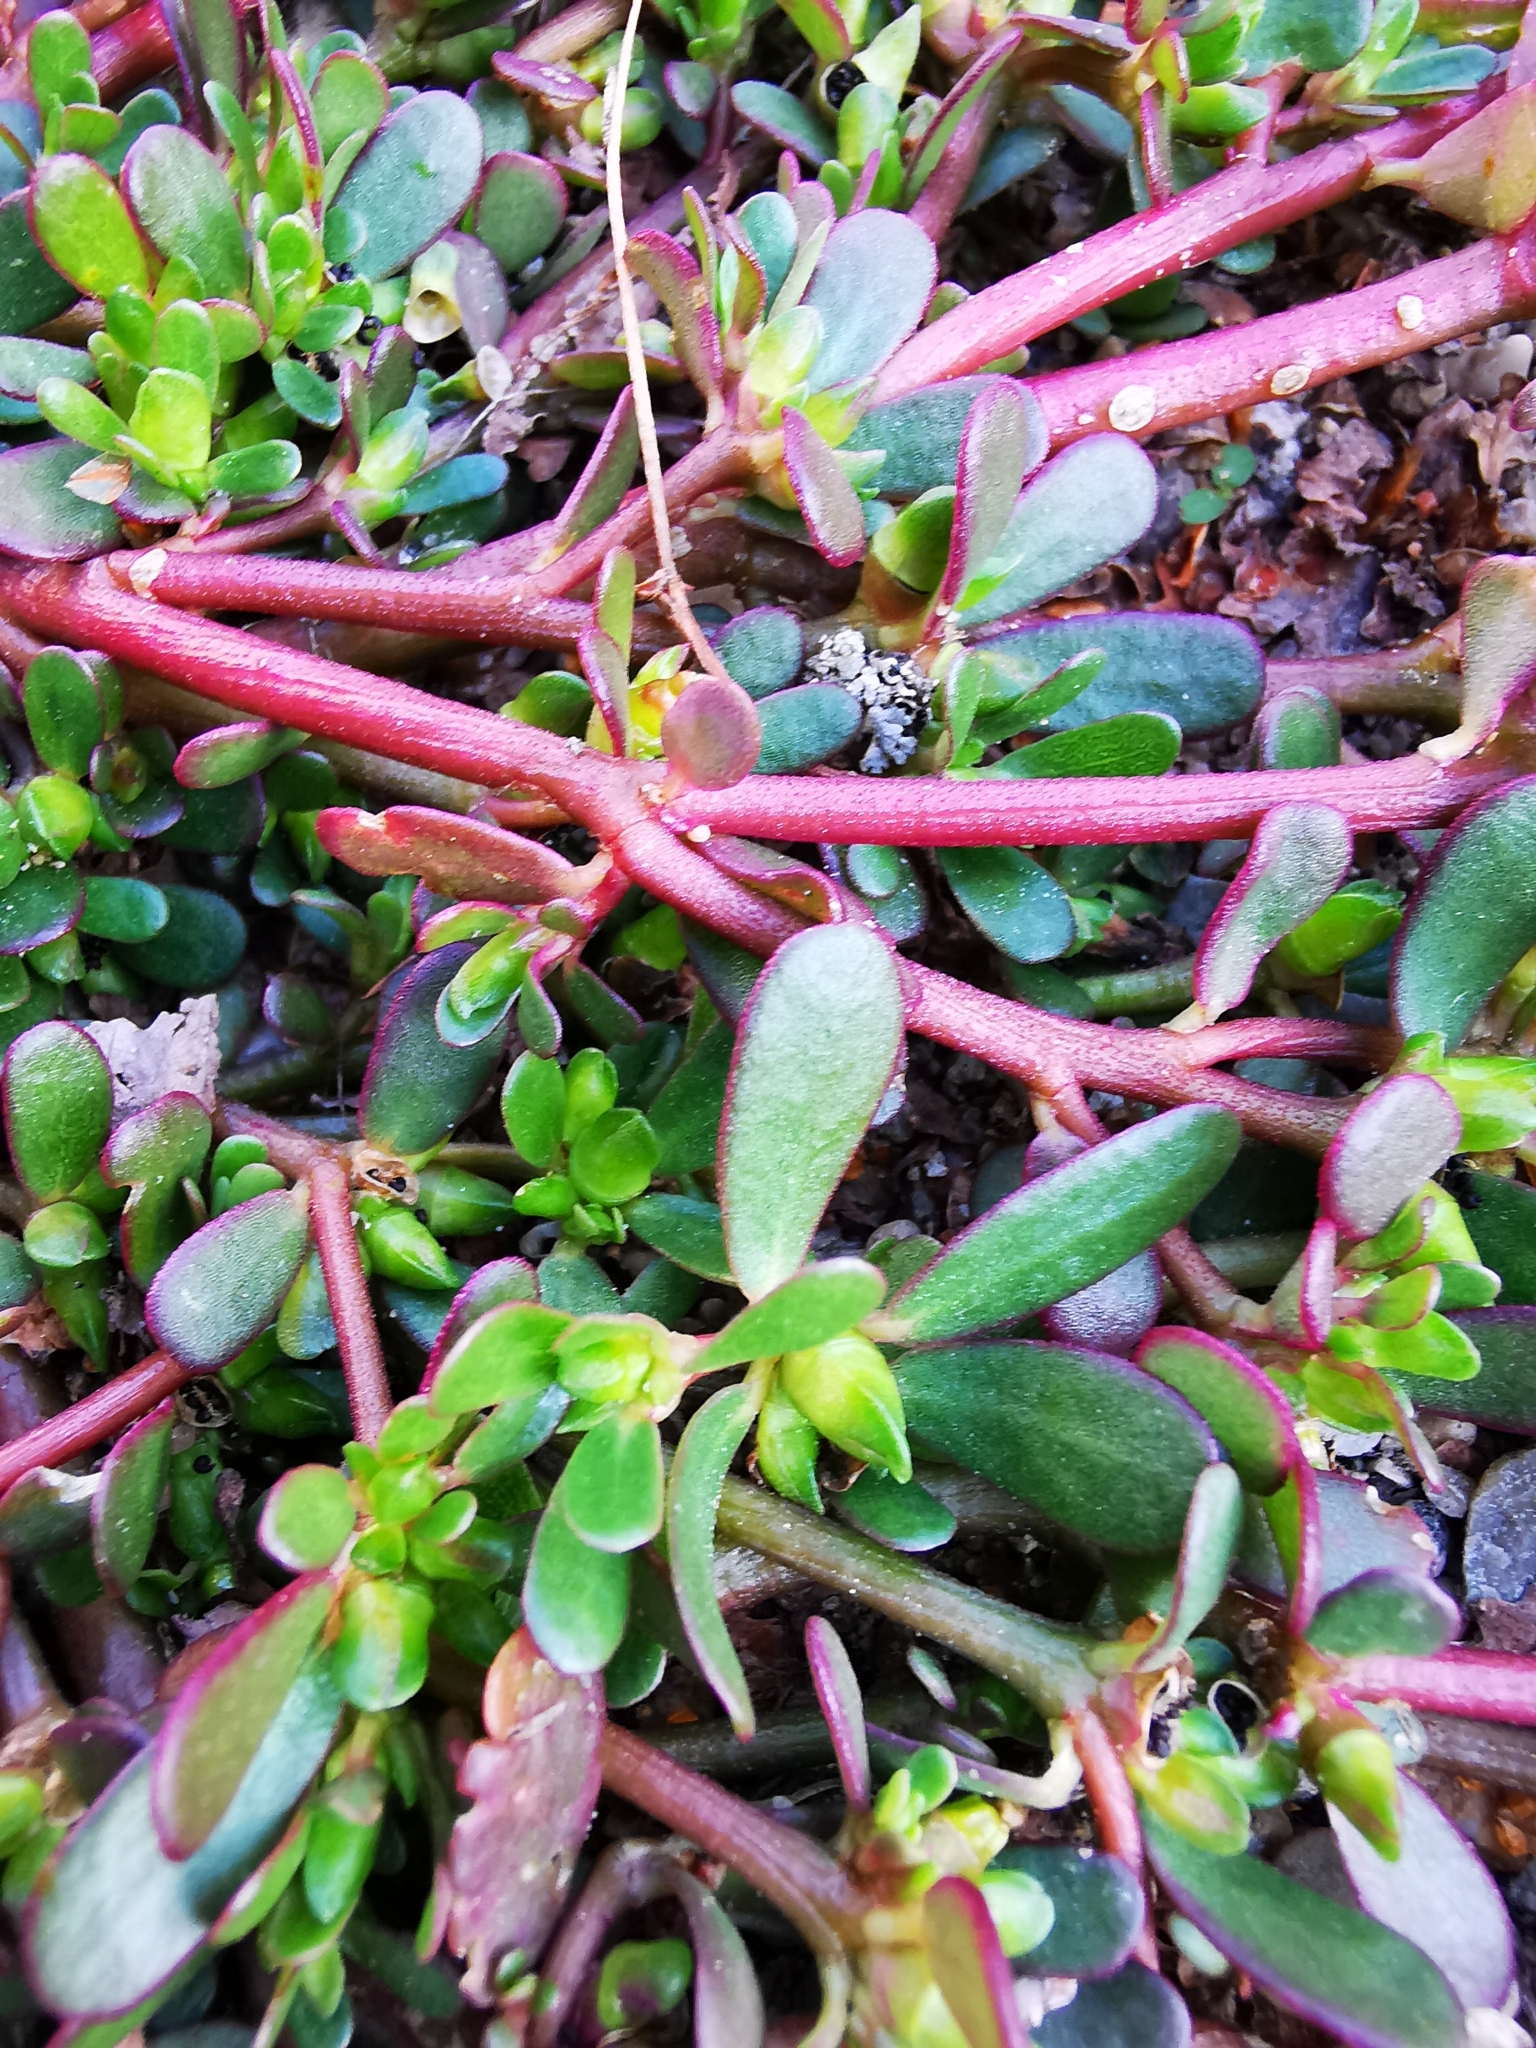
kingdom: Plantae
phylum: Tracheophyta
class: Magnoliopsida
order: Caryophyllales
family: Portulacaceae
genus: Portulaca
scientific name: Portulaca oleracea
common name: Common purslane
